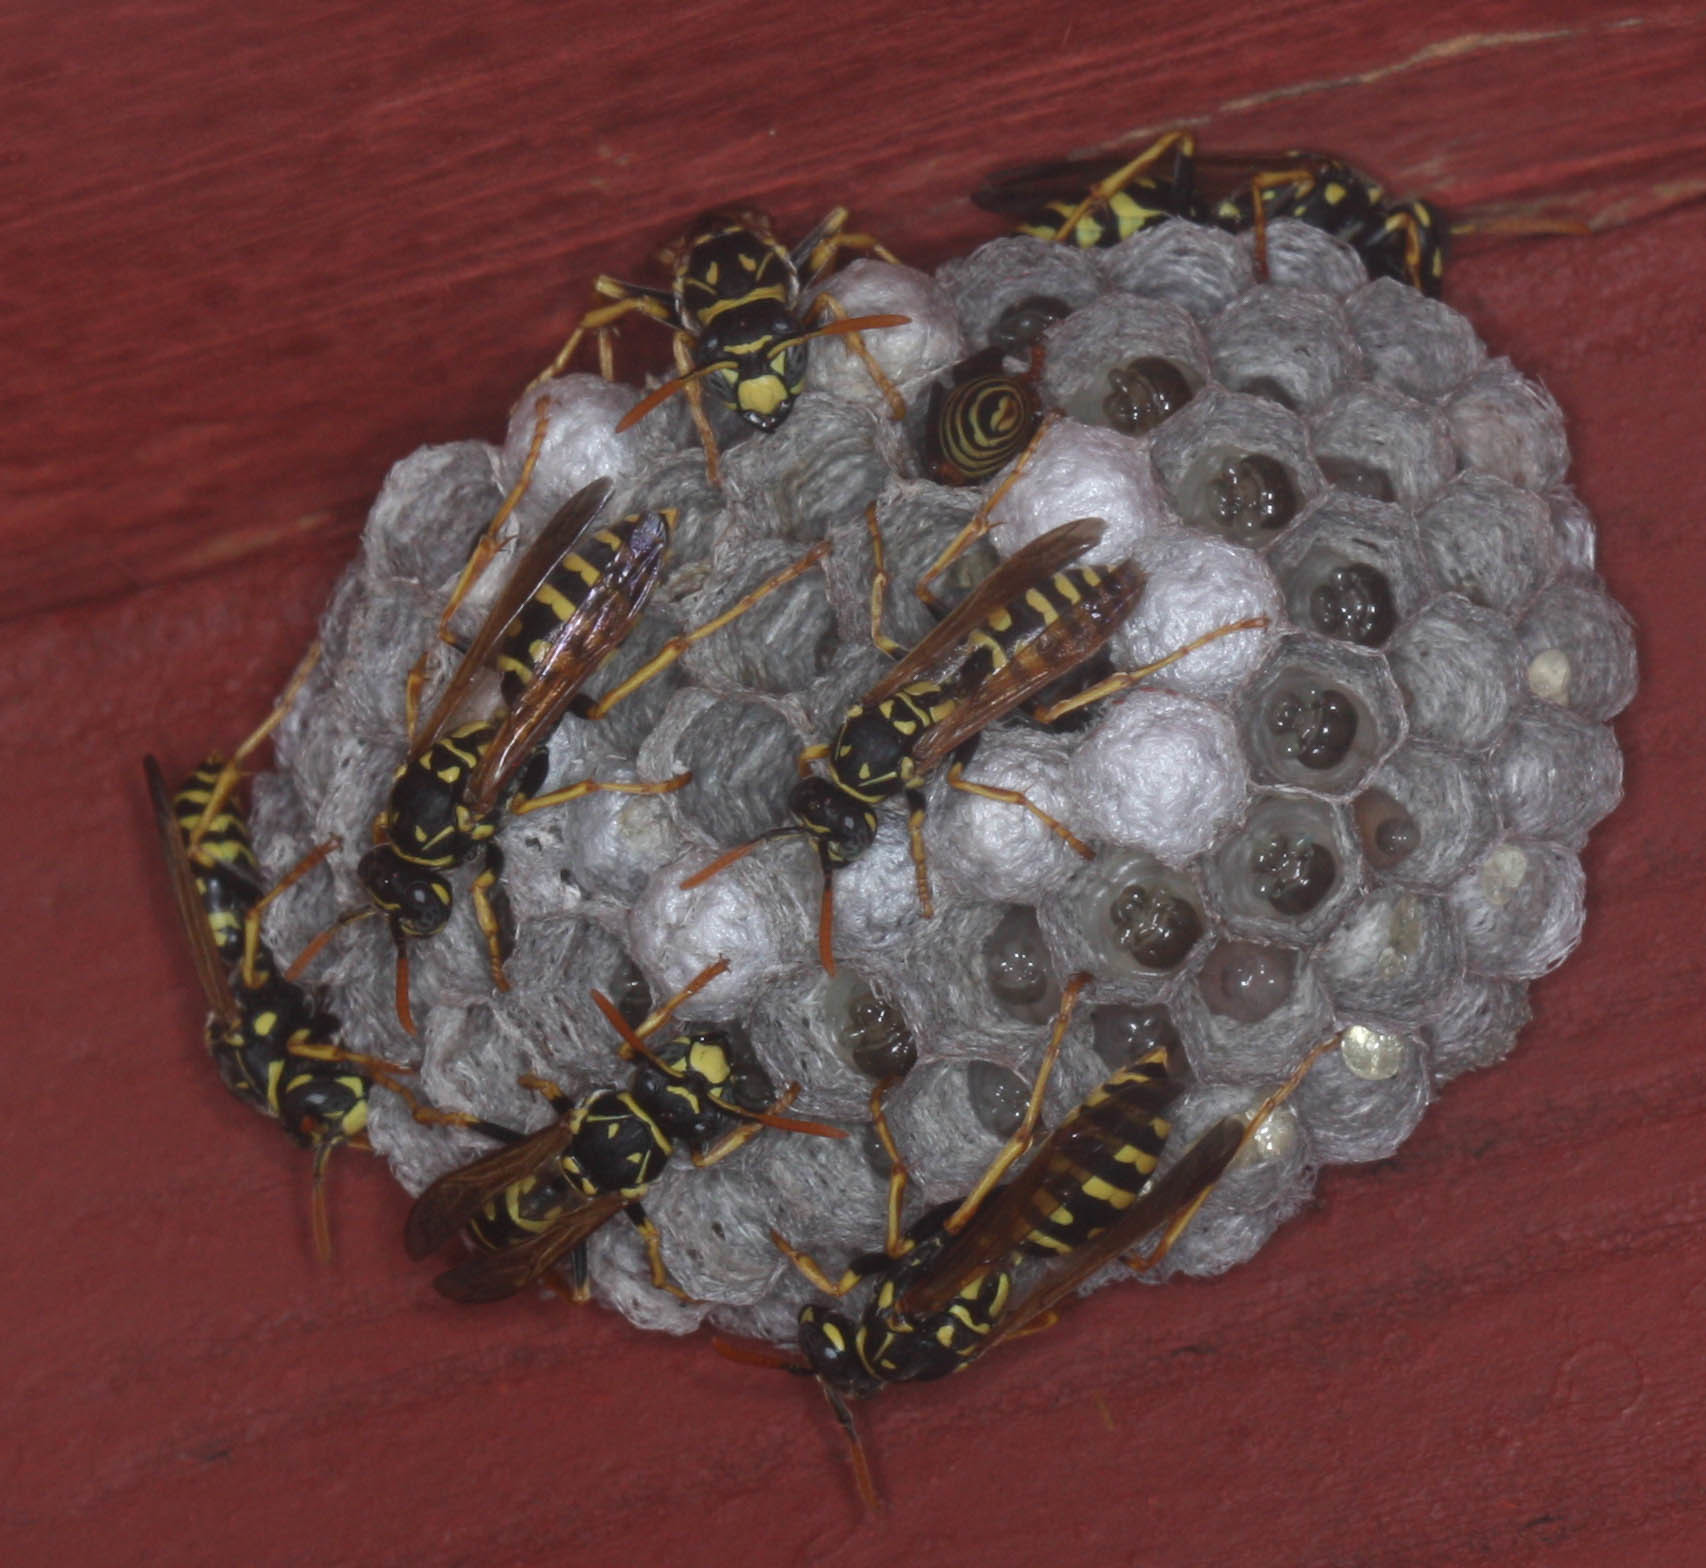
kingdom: Animalia
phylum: Arthropoda
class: Insecta
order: Hymenoptera
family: Eumenidae
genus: Polistes
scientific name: Polistes dominula
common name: Paper wasp
